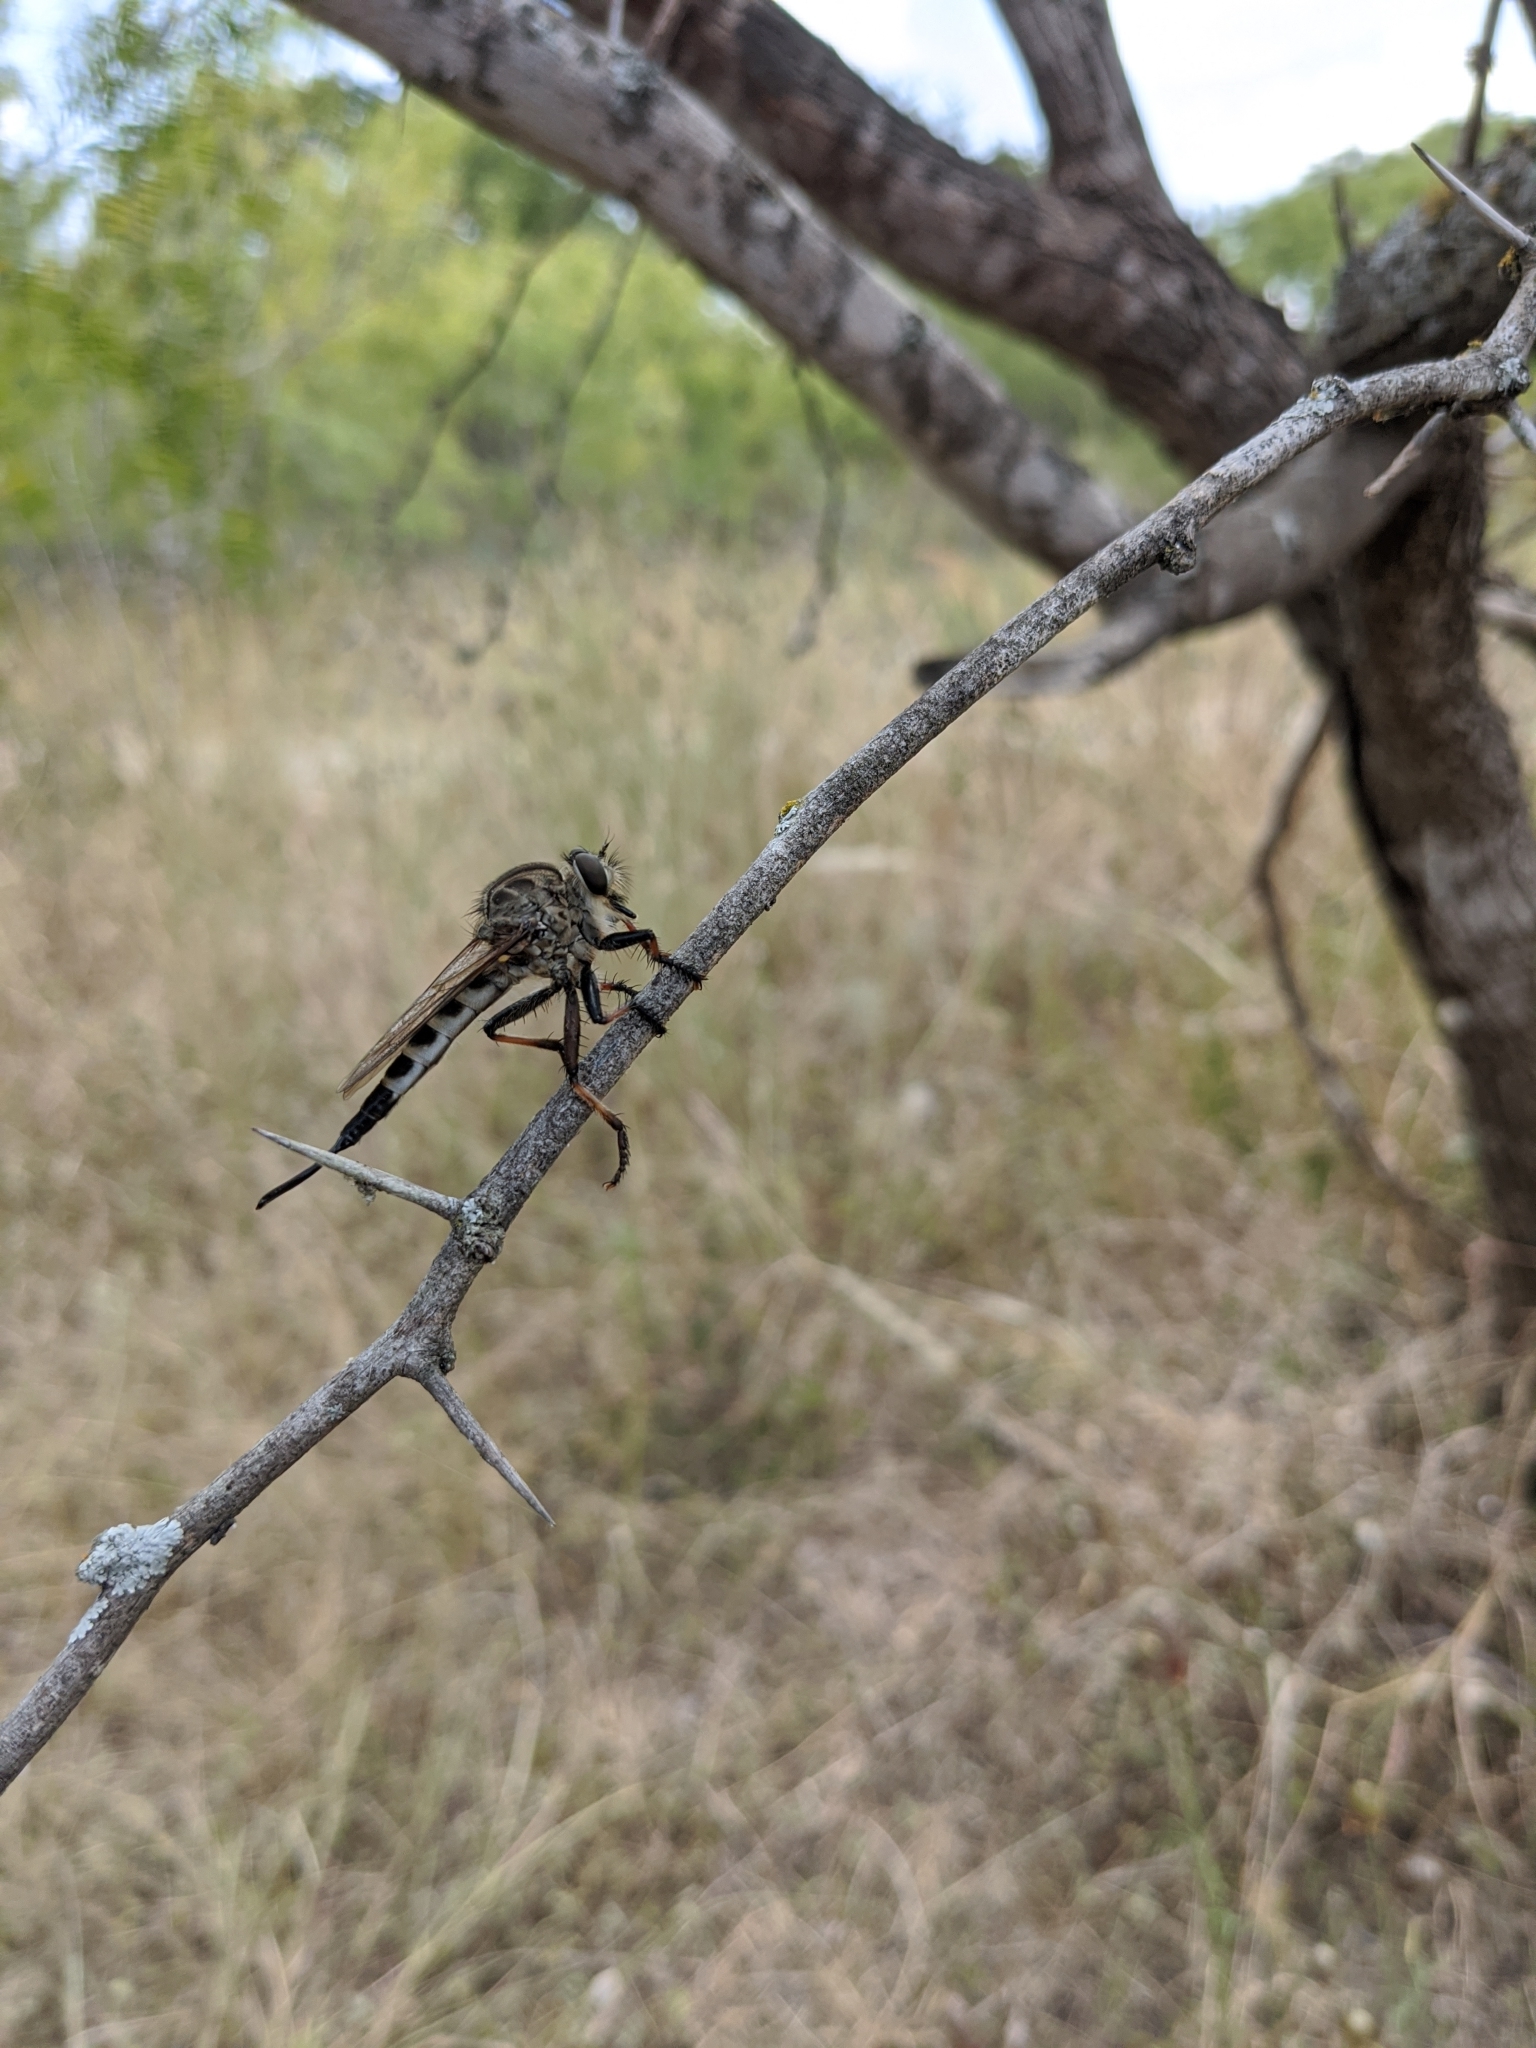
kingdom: Animalia
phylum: Arthropoda
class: Insecta
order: Diptera
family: Asilidae
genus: Efferia
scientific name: Efferia aestuans
